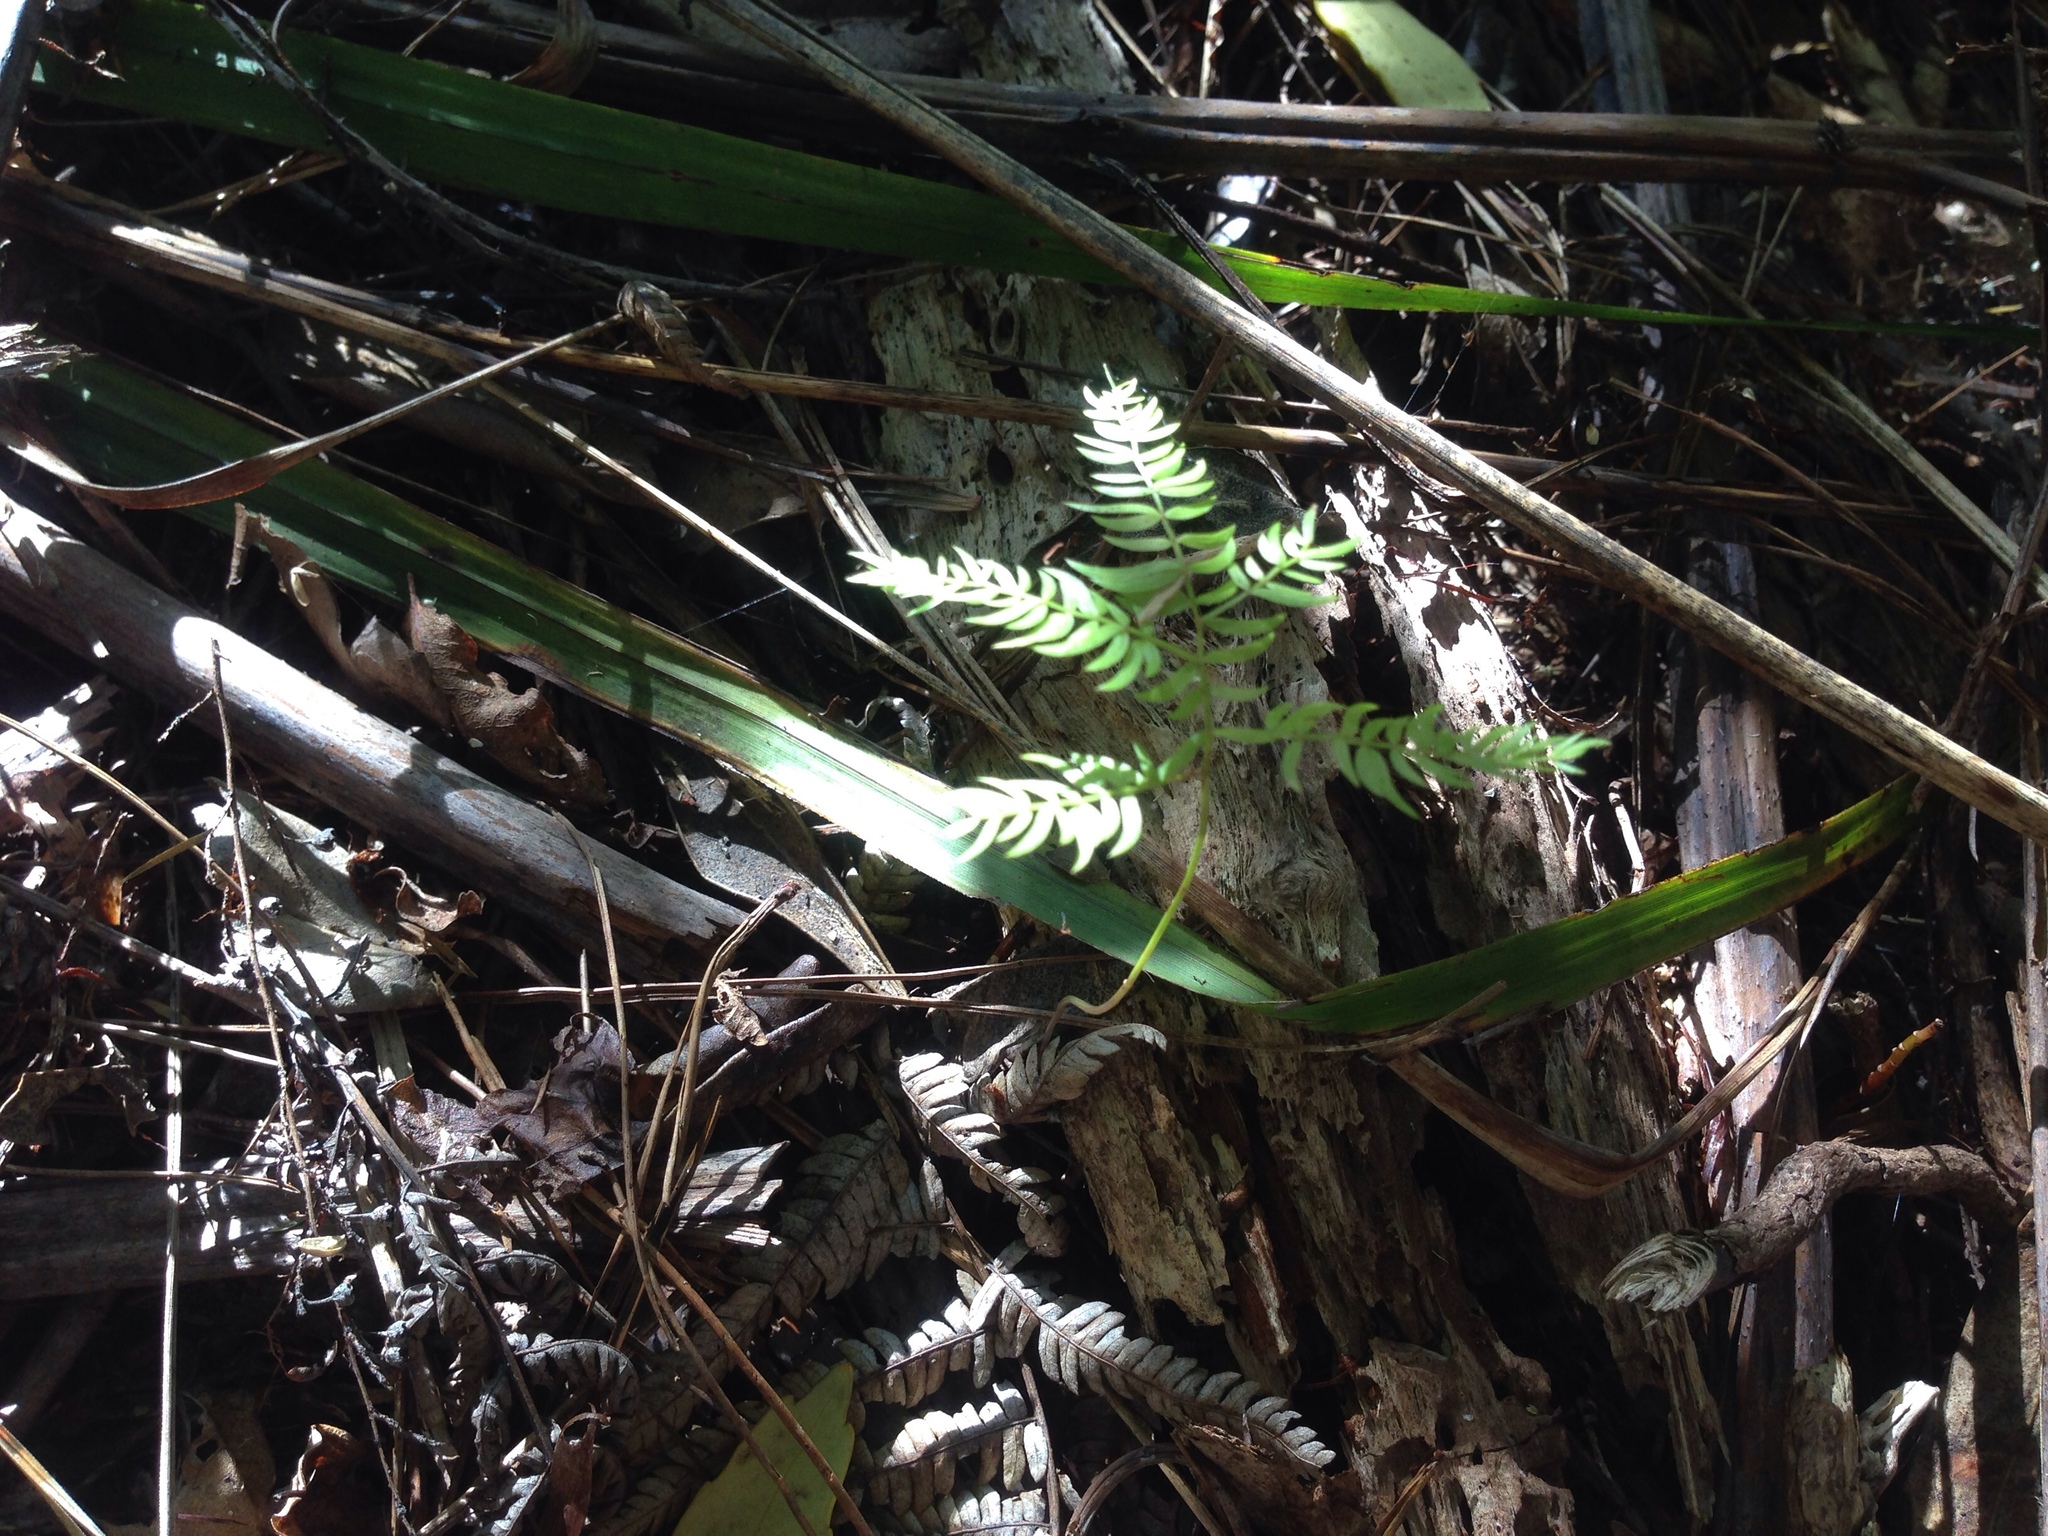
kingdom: Plantae
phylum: Tracheophyta
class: Liliopsida
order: Asparagales
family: Asparagaceae
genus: Asparagus
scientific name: Asparagus scandens
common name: Asparagus-fern
